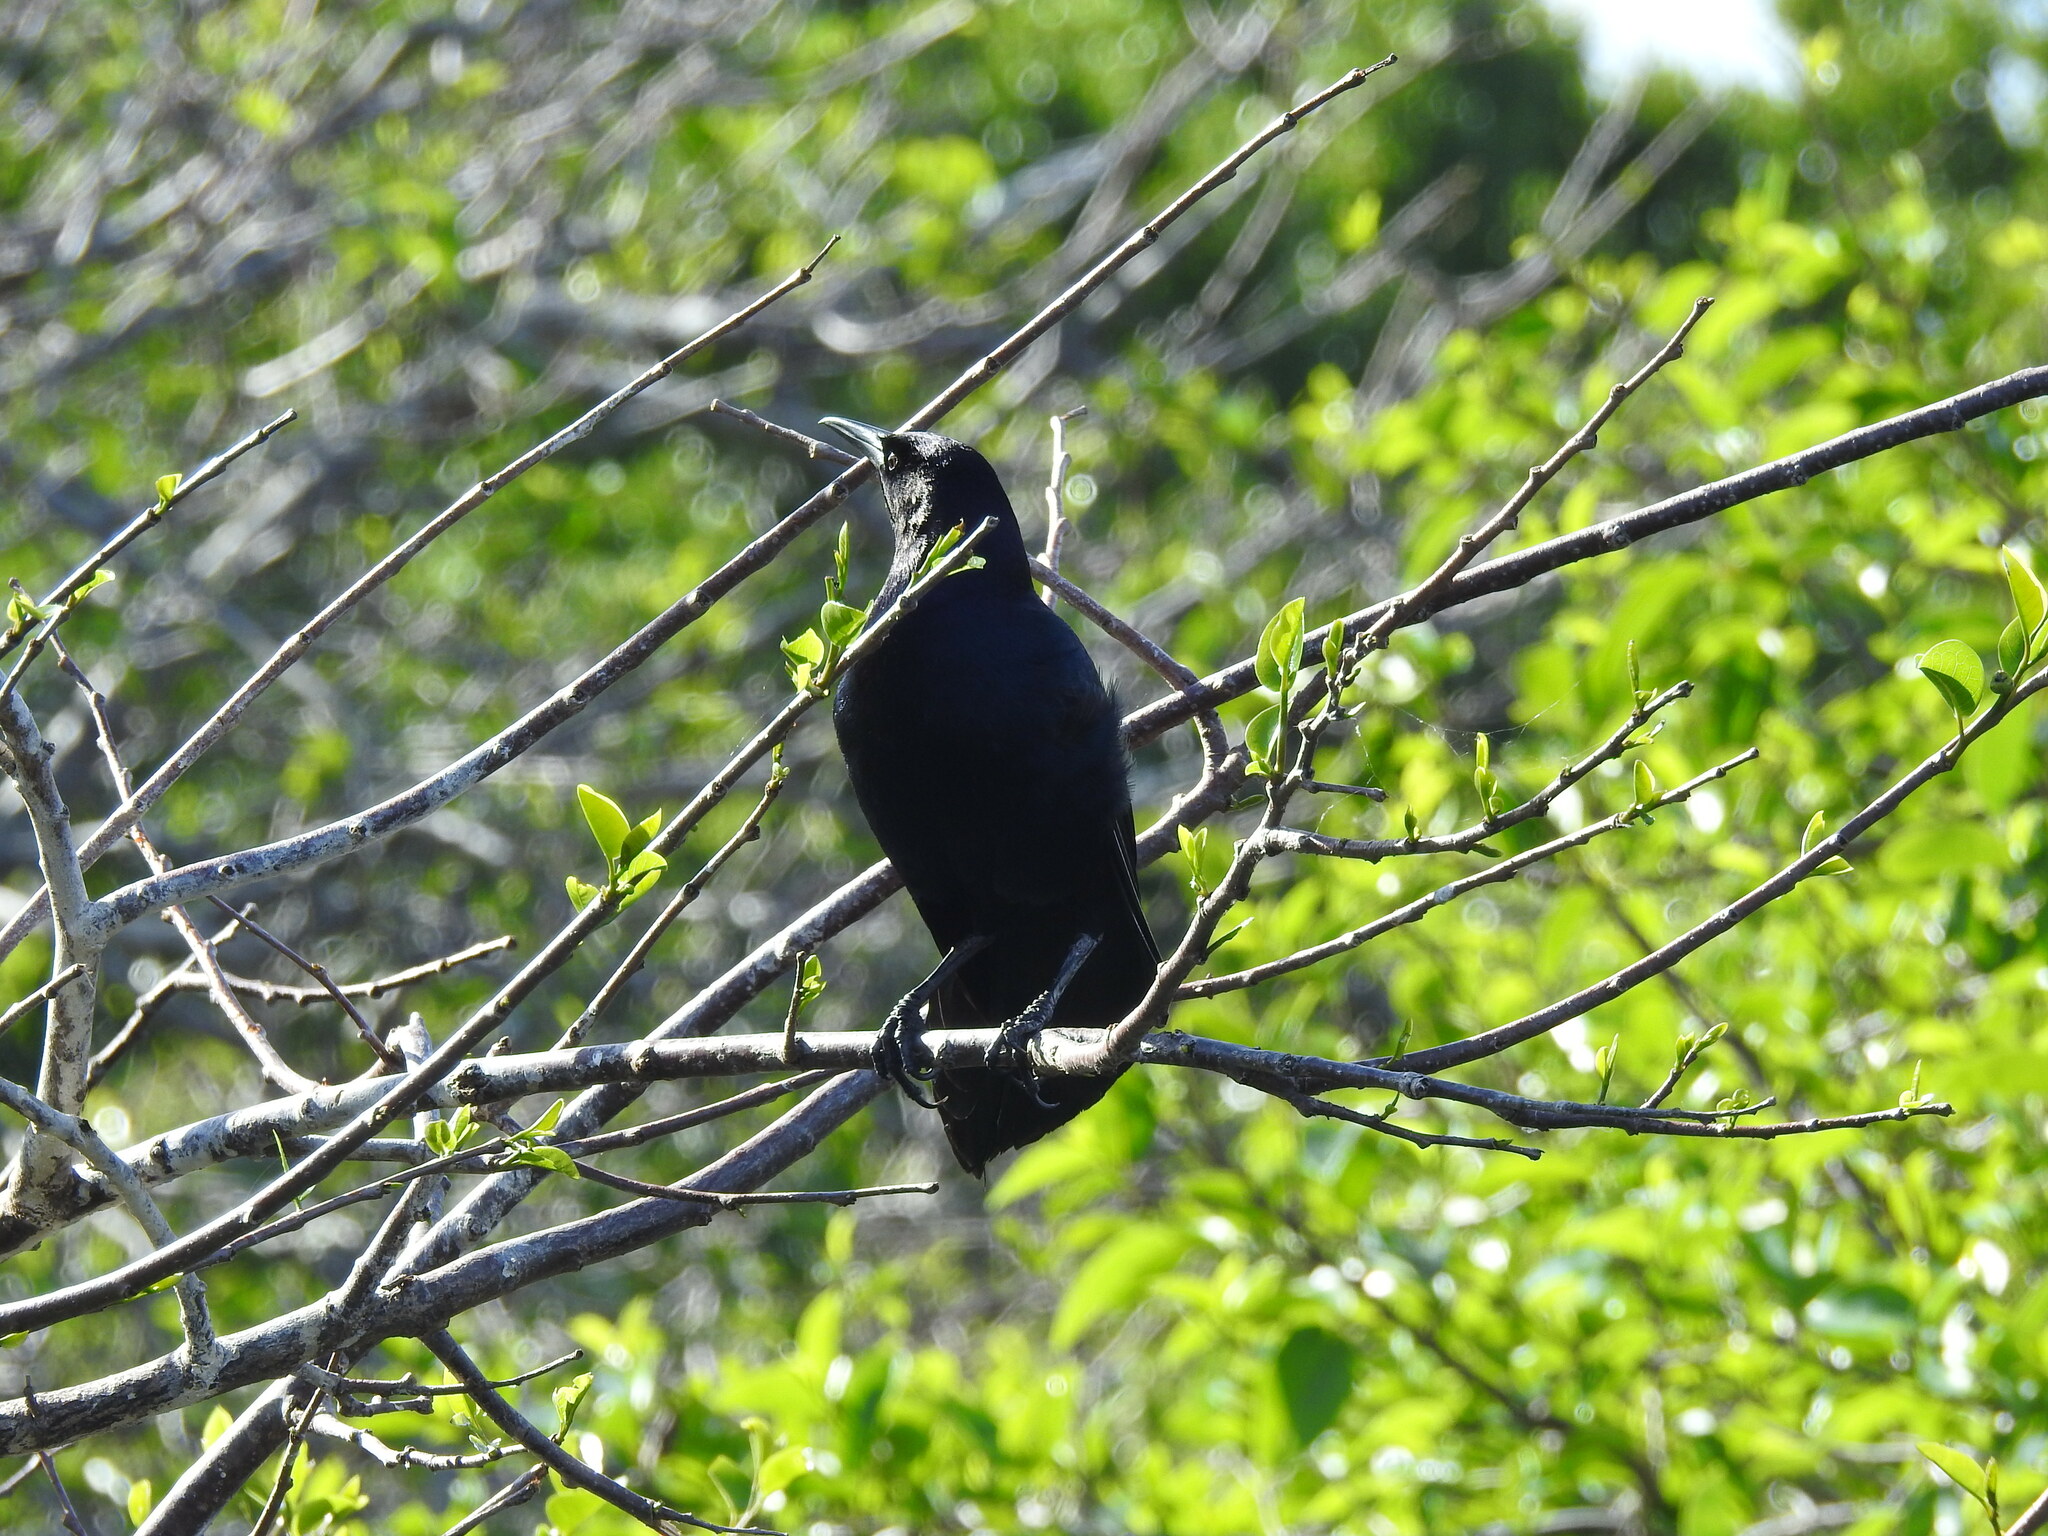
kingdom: Animalia
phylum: Chordata
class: Aves
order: Passeriformes
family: Icteridae
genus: Quiscalus
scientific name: Quiscalus major
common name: Boat-tailed grackle
